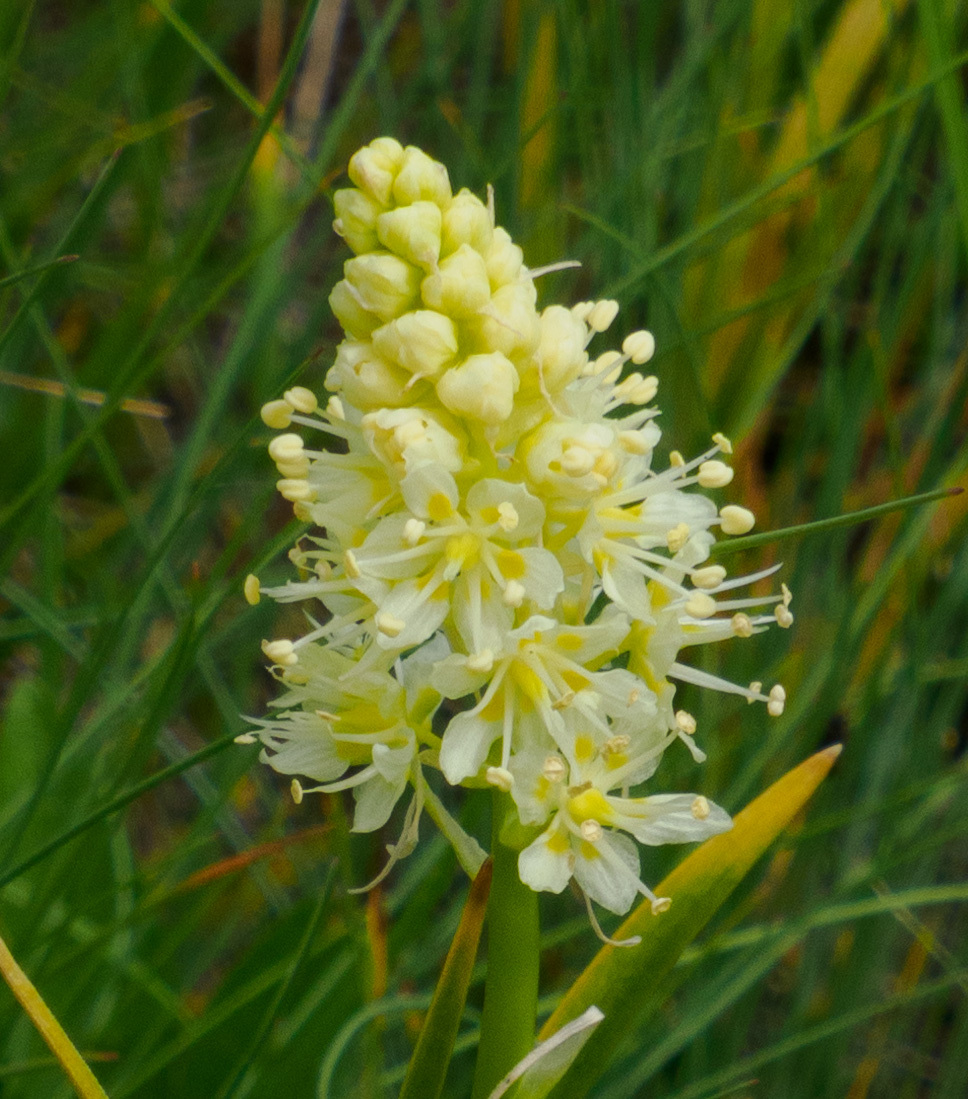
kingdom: Plantae
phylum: Tracheophyta
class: Liliopsida
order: Liliales
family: Melanthiaceae
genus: Toxicoscordion
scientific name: Toxicoscordion venenosum
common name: Meadow death camas
